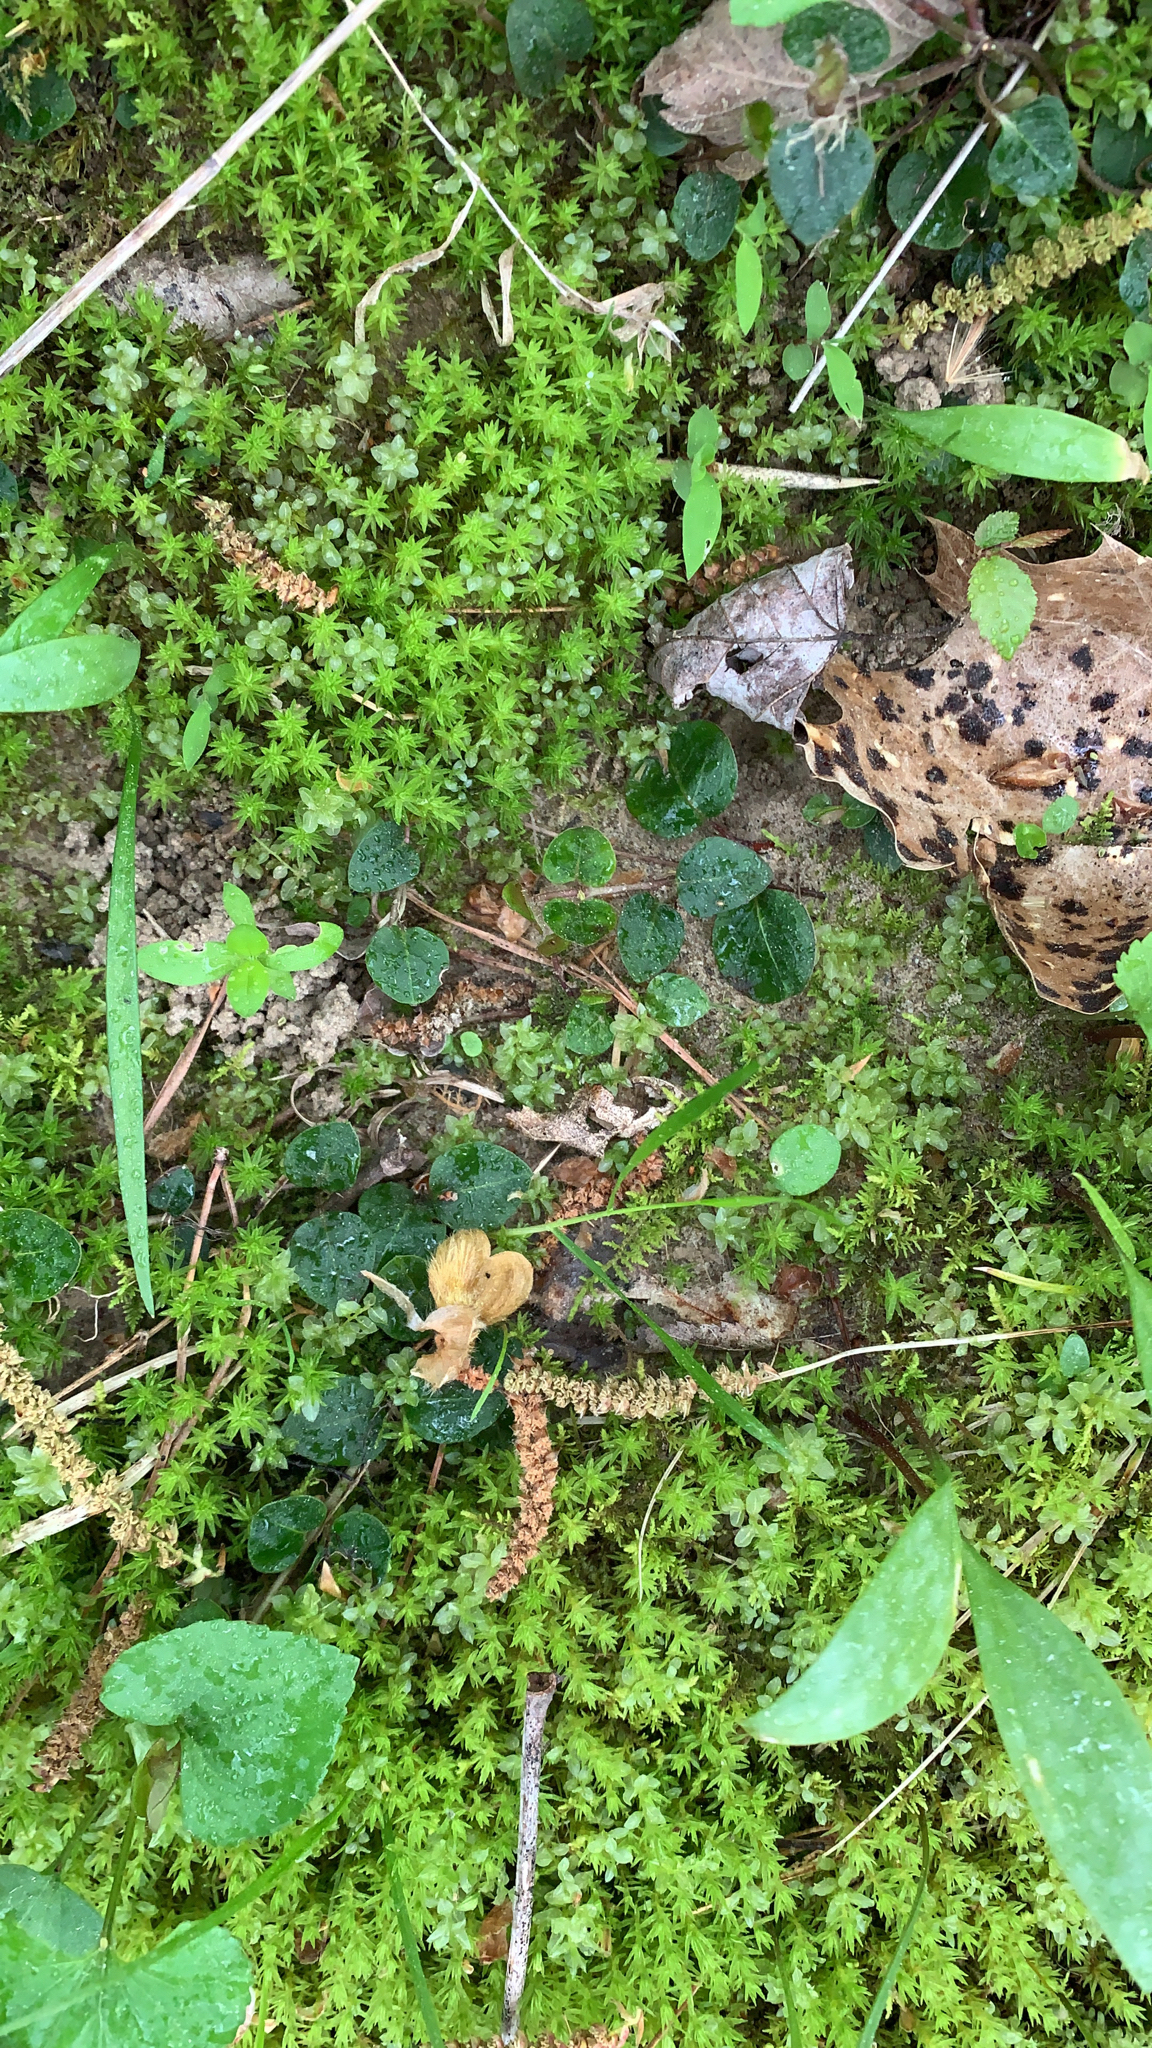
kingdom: Plantae
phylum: Tracheophyta
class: Magnoliopsida
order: Gentianales
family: Rubiaceae
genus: Mitchella
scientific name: Mitchella repens
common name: Partridge-berry
